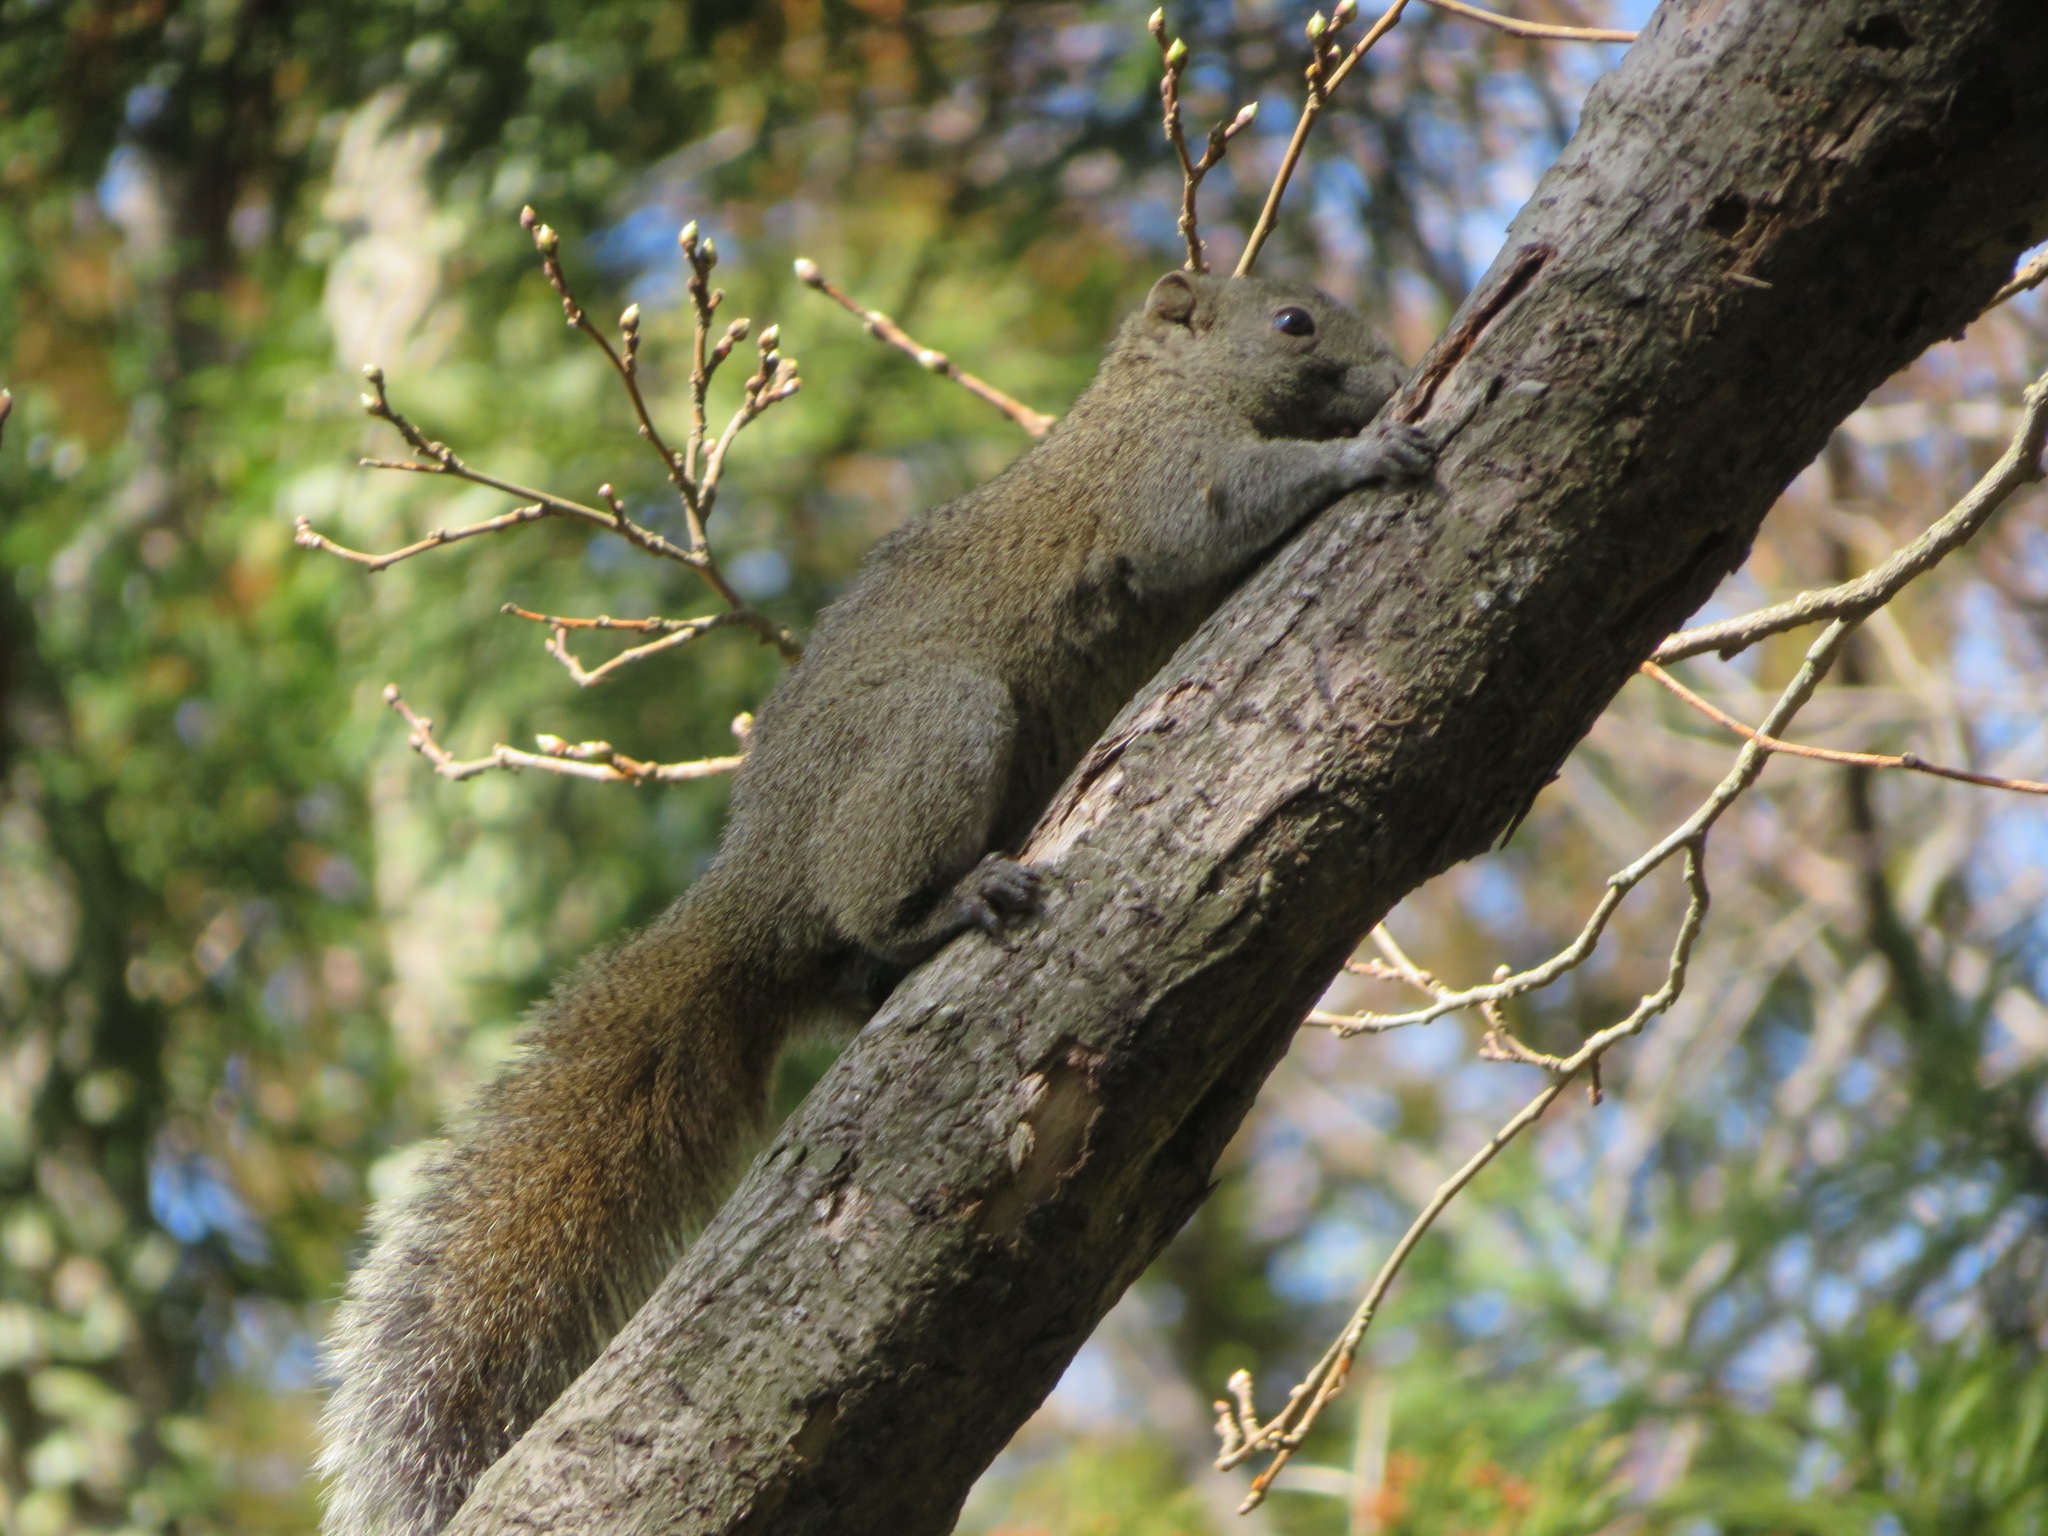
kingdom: Animalia
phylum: Chordata
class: Mammalia
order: Rodentia
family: Sciuridae
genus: Callosciurus
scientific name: Callosciurus erythraeus
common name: Pallas's squirrel
